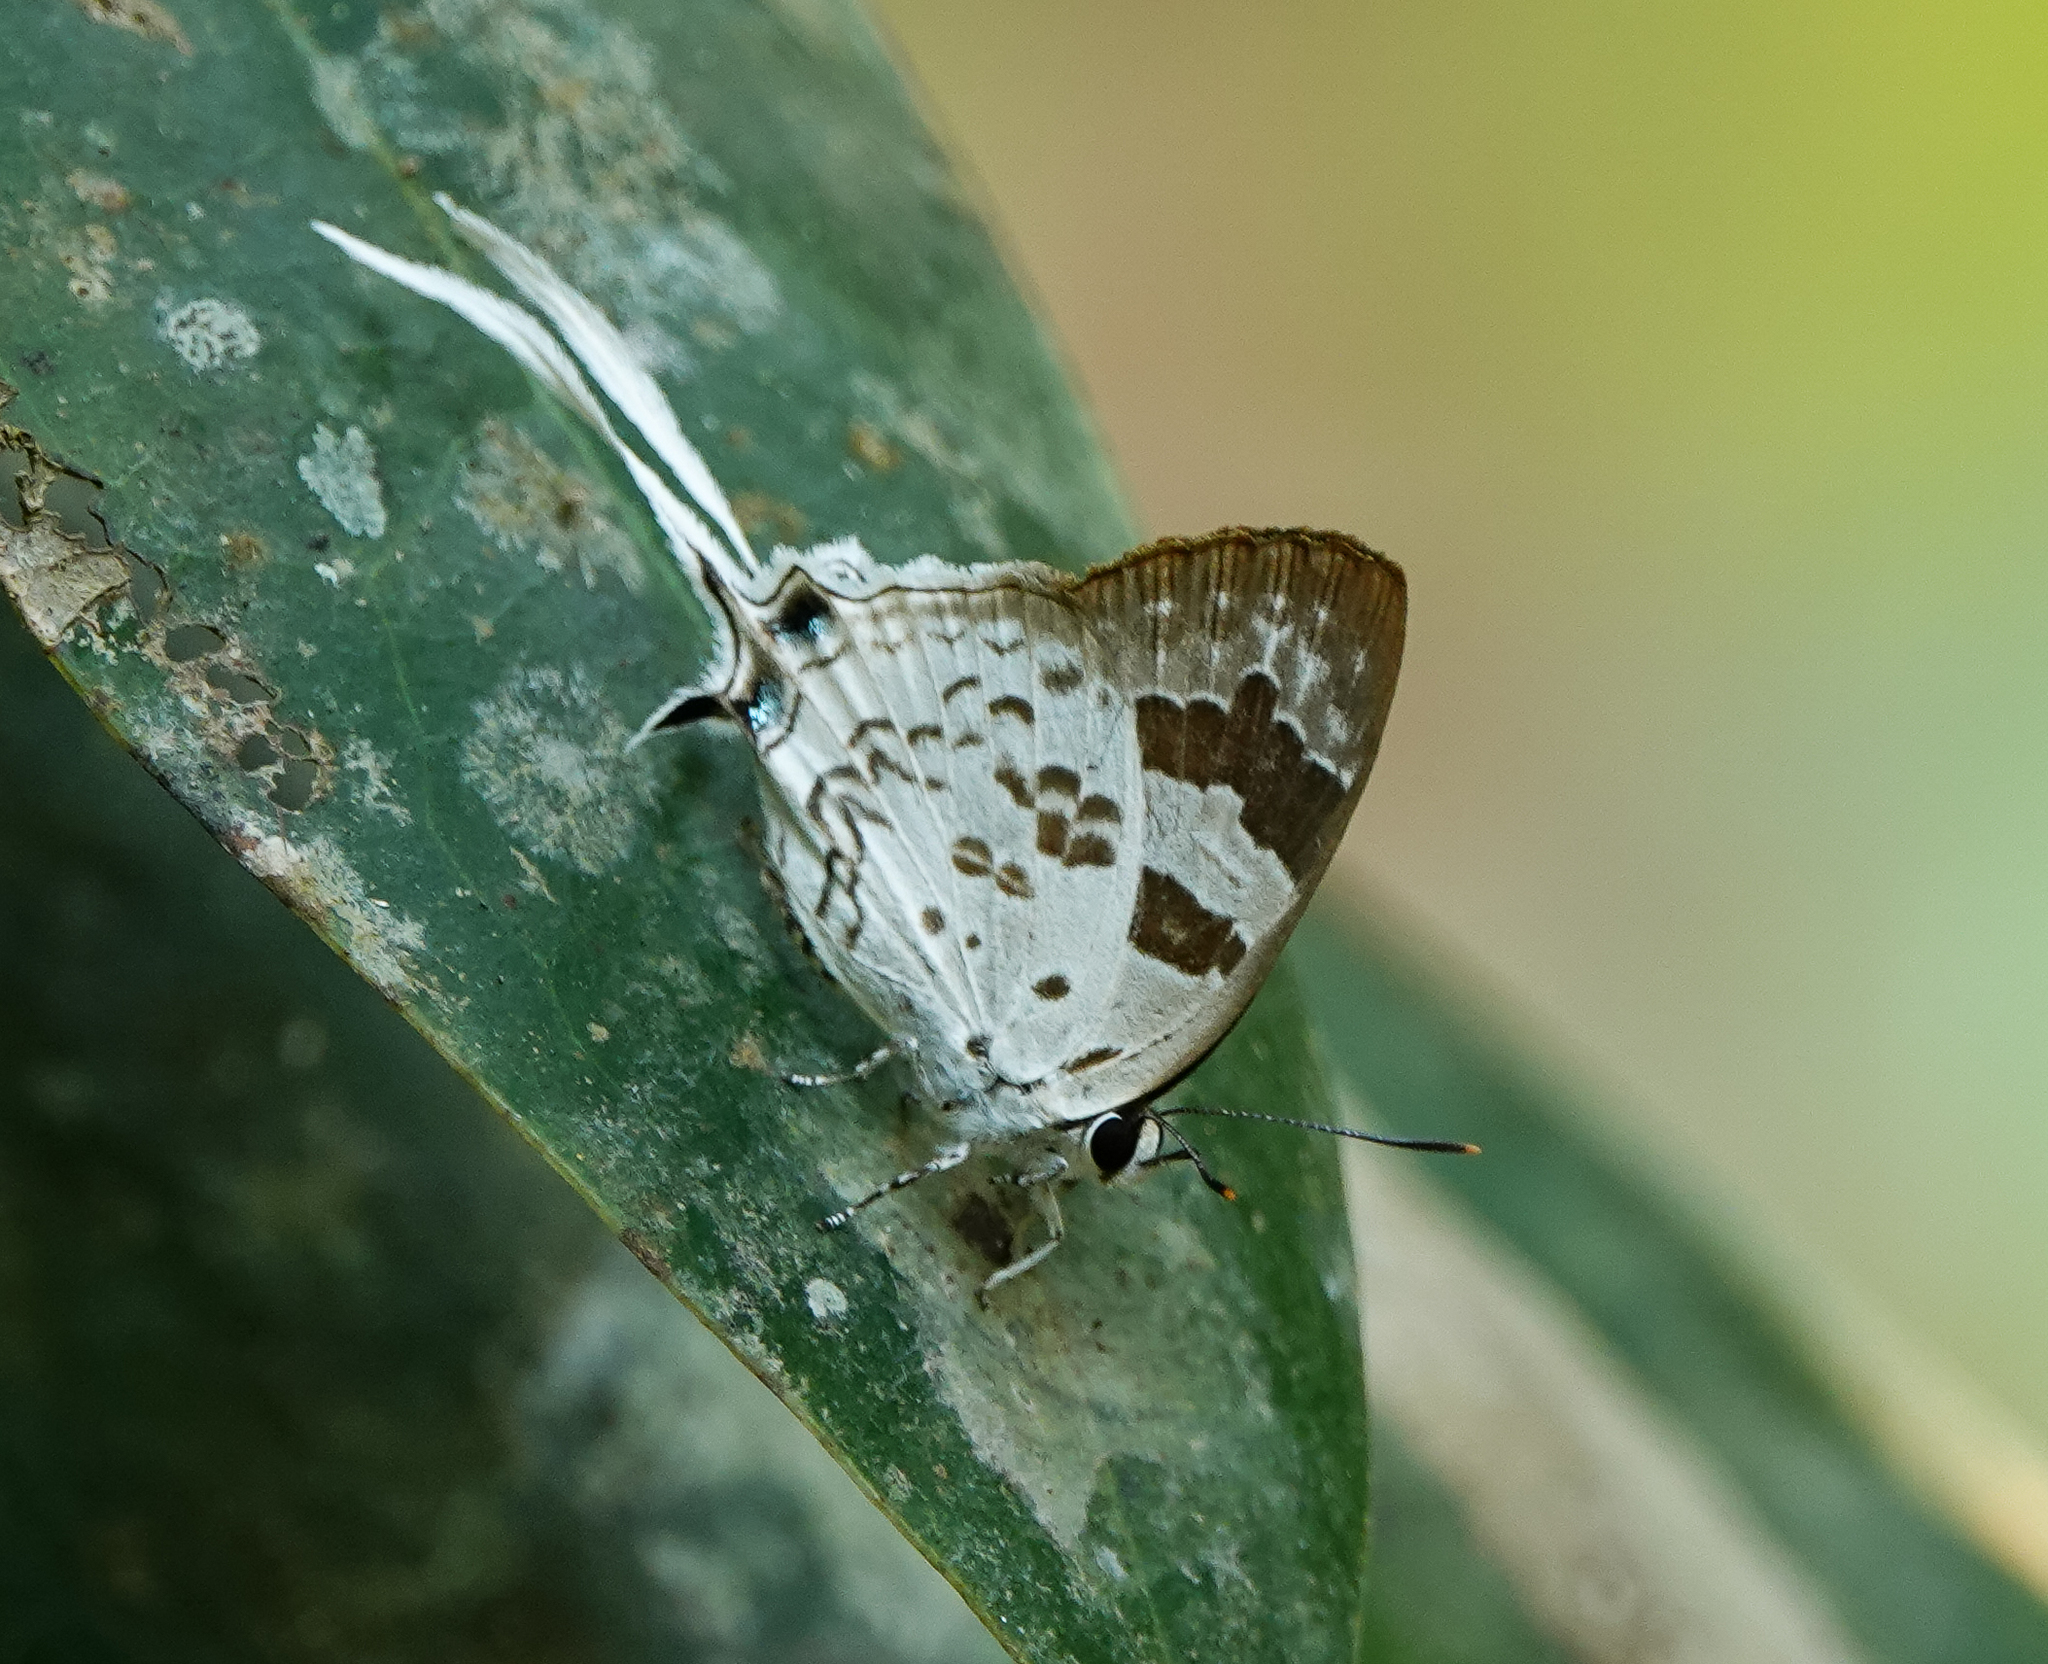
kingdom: Animalia
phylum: Arthropoda
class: Insecta
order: Lepidoptera
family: Lycaenidae
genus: Bindahara
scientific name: Bindahara phocides
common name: Sword-tailed flash
